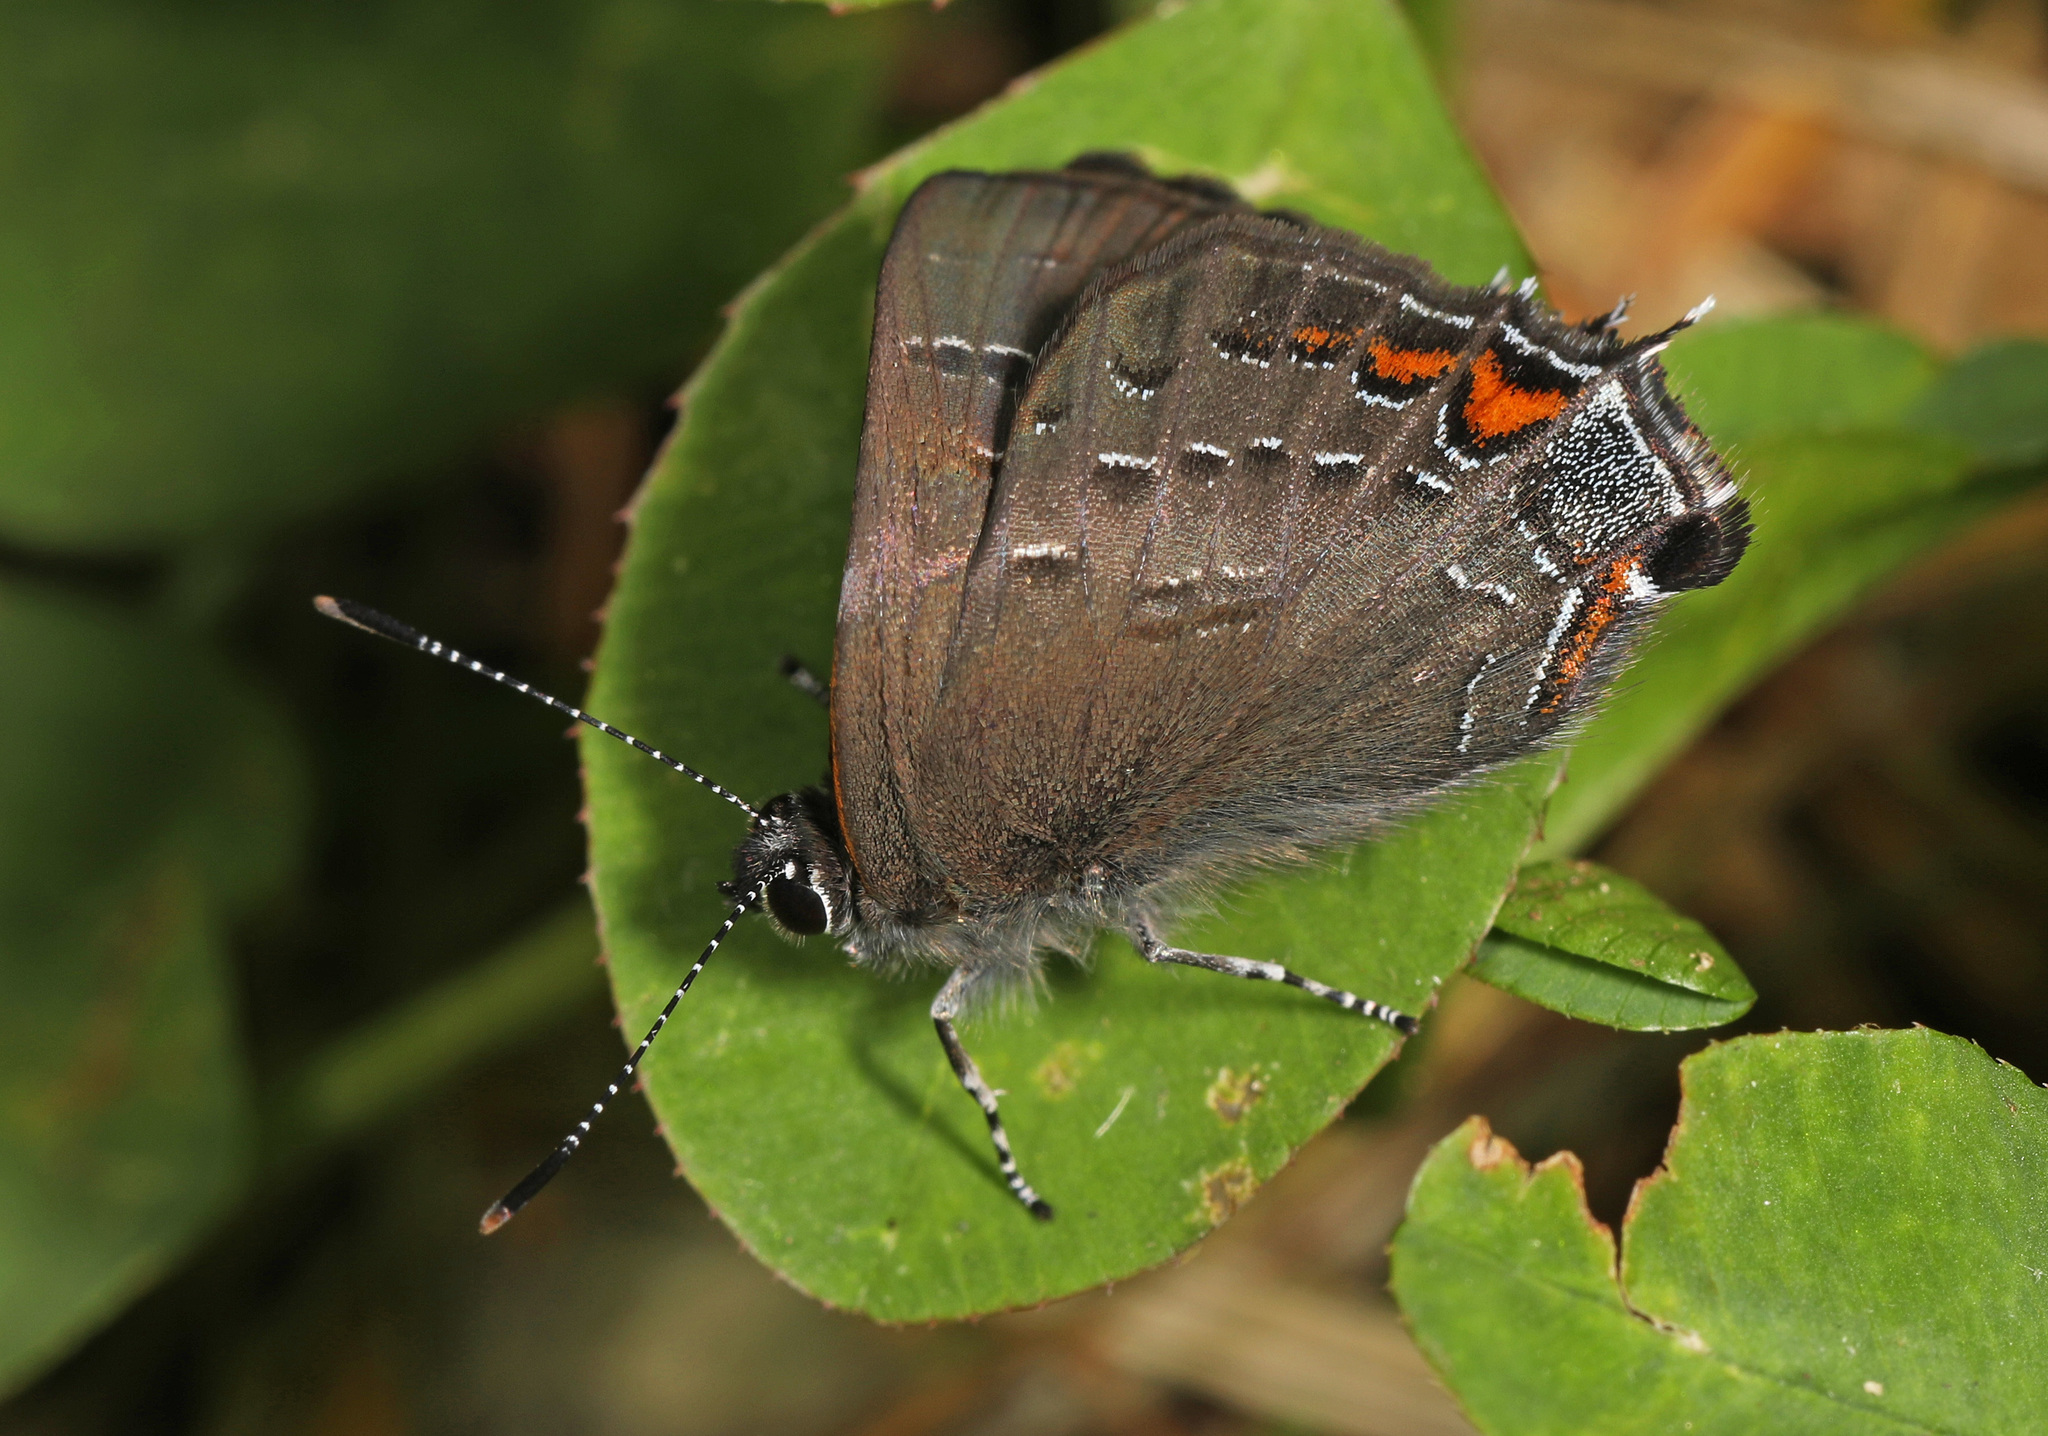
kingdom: Animalia
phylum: Arthropoda
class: Insecta
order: Lepidoptera
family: Lycaenidae
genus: Satyrium
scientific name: Satyrium calanus
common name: Banded hairstreak
